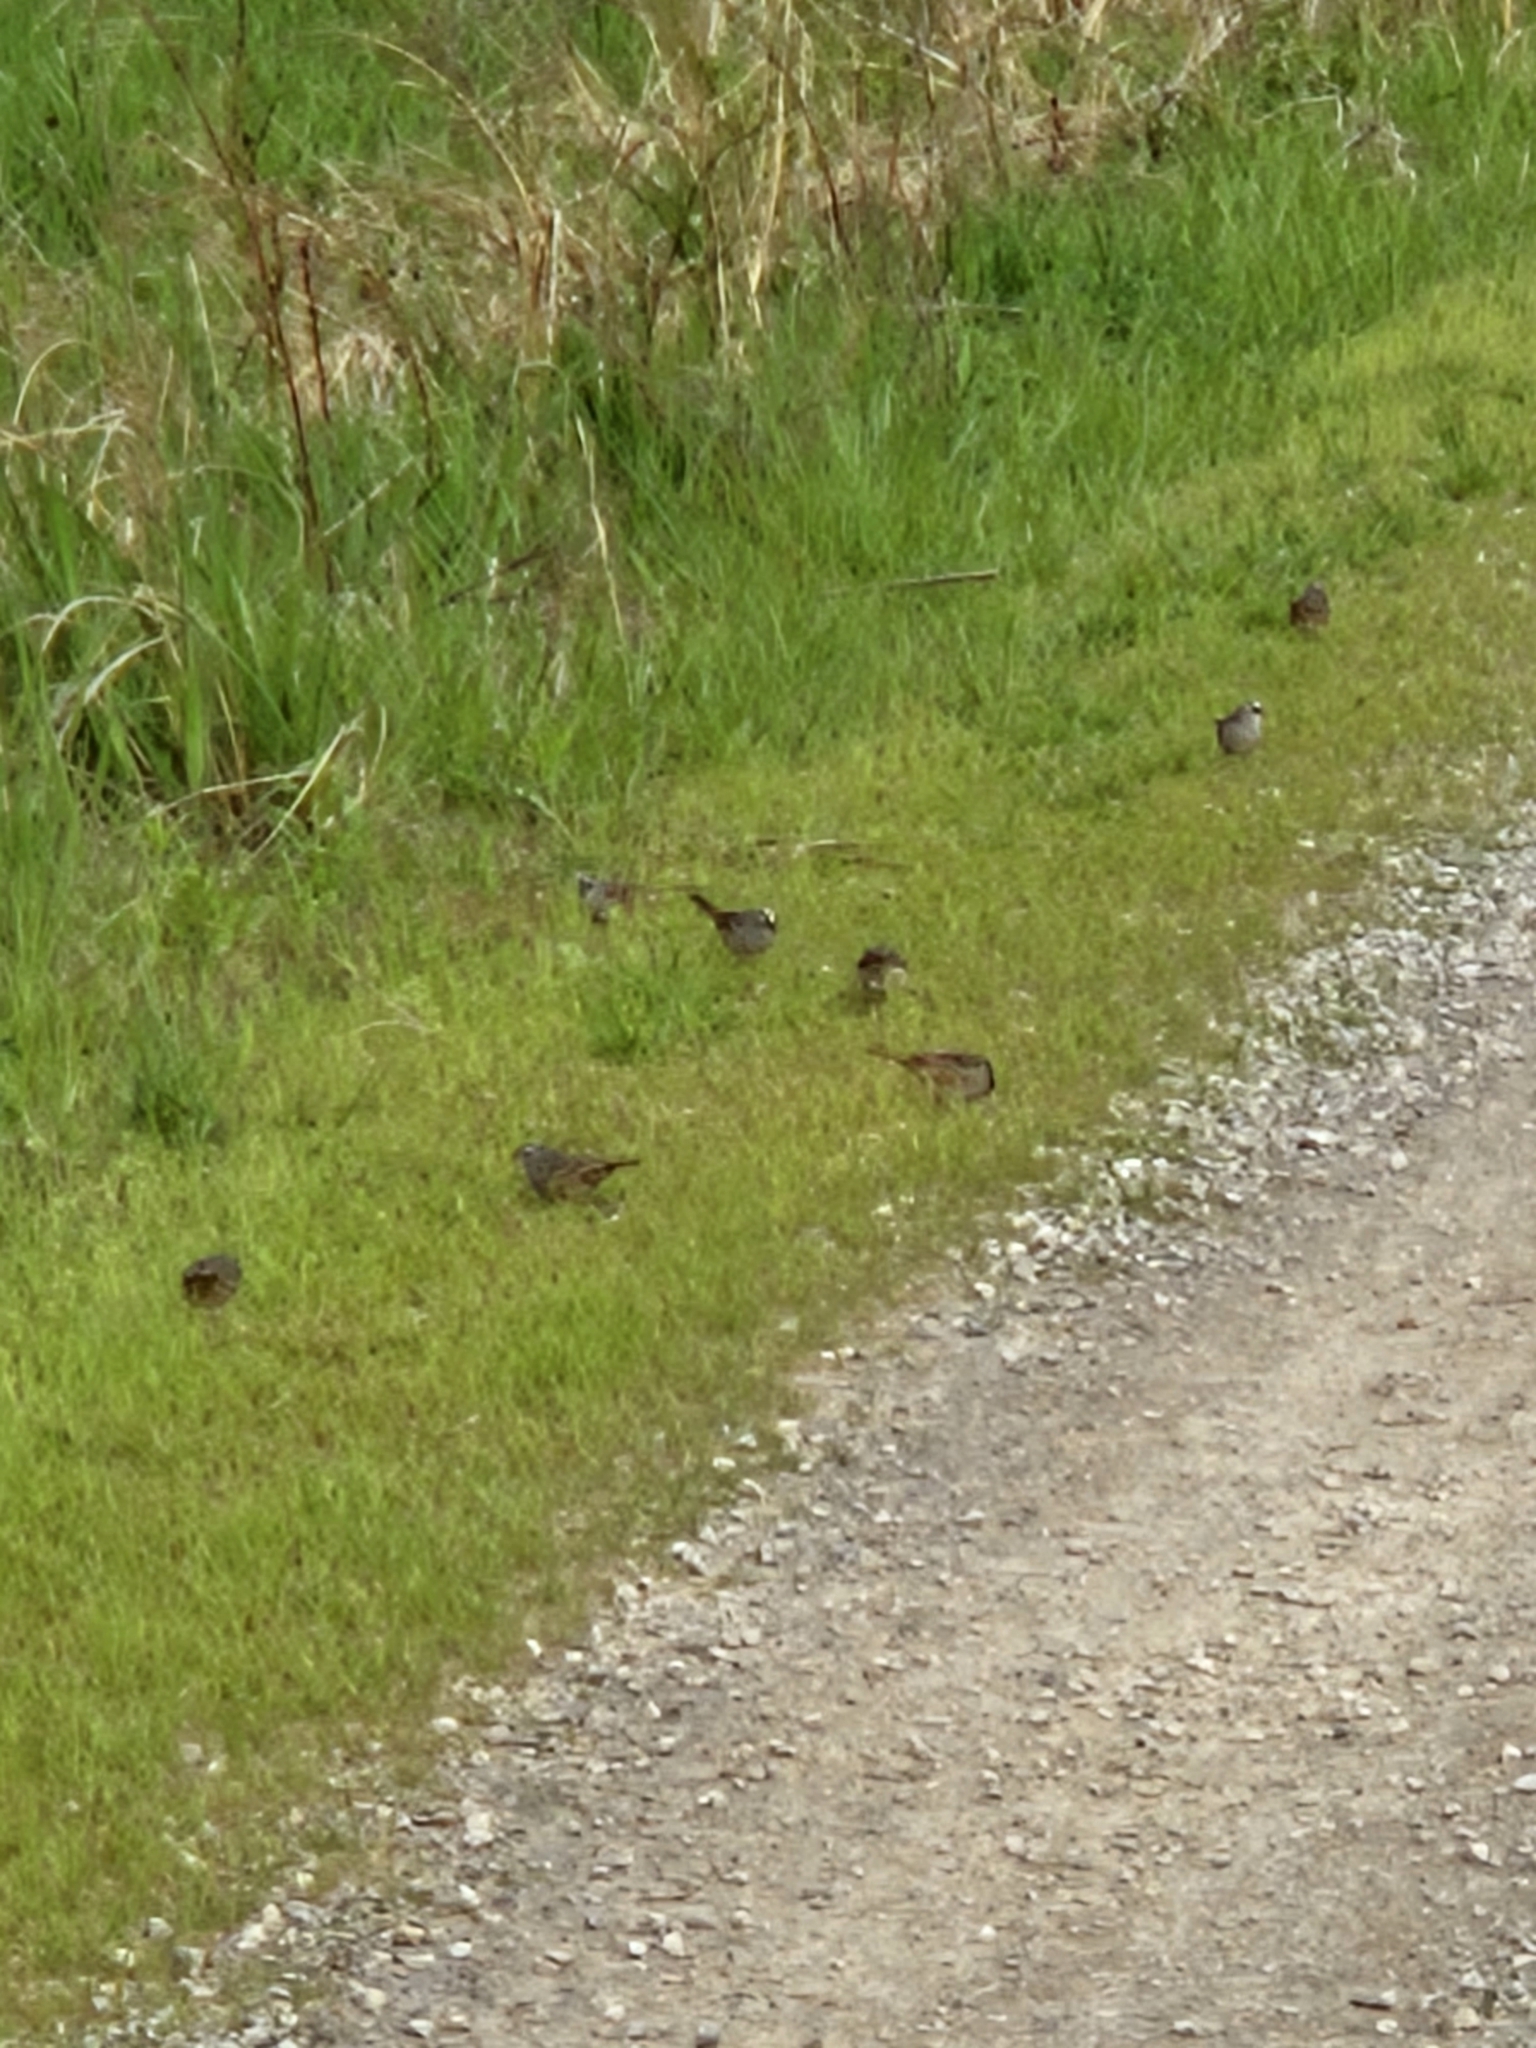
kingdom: Animalia
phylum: Chordata
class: Aves
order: Passeriformes
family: Passerellidae
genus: Zonotrichia
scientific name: Zonotrichia leucophrys
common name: White-crowned sparrow
